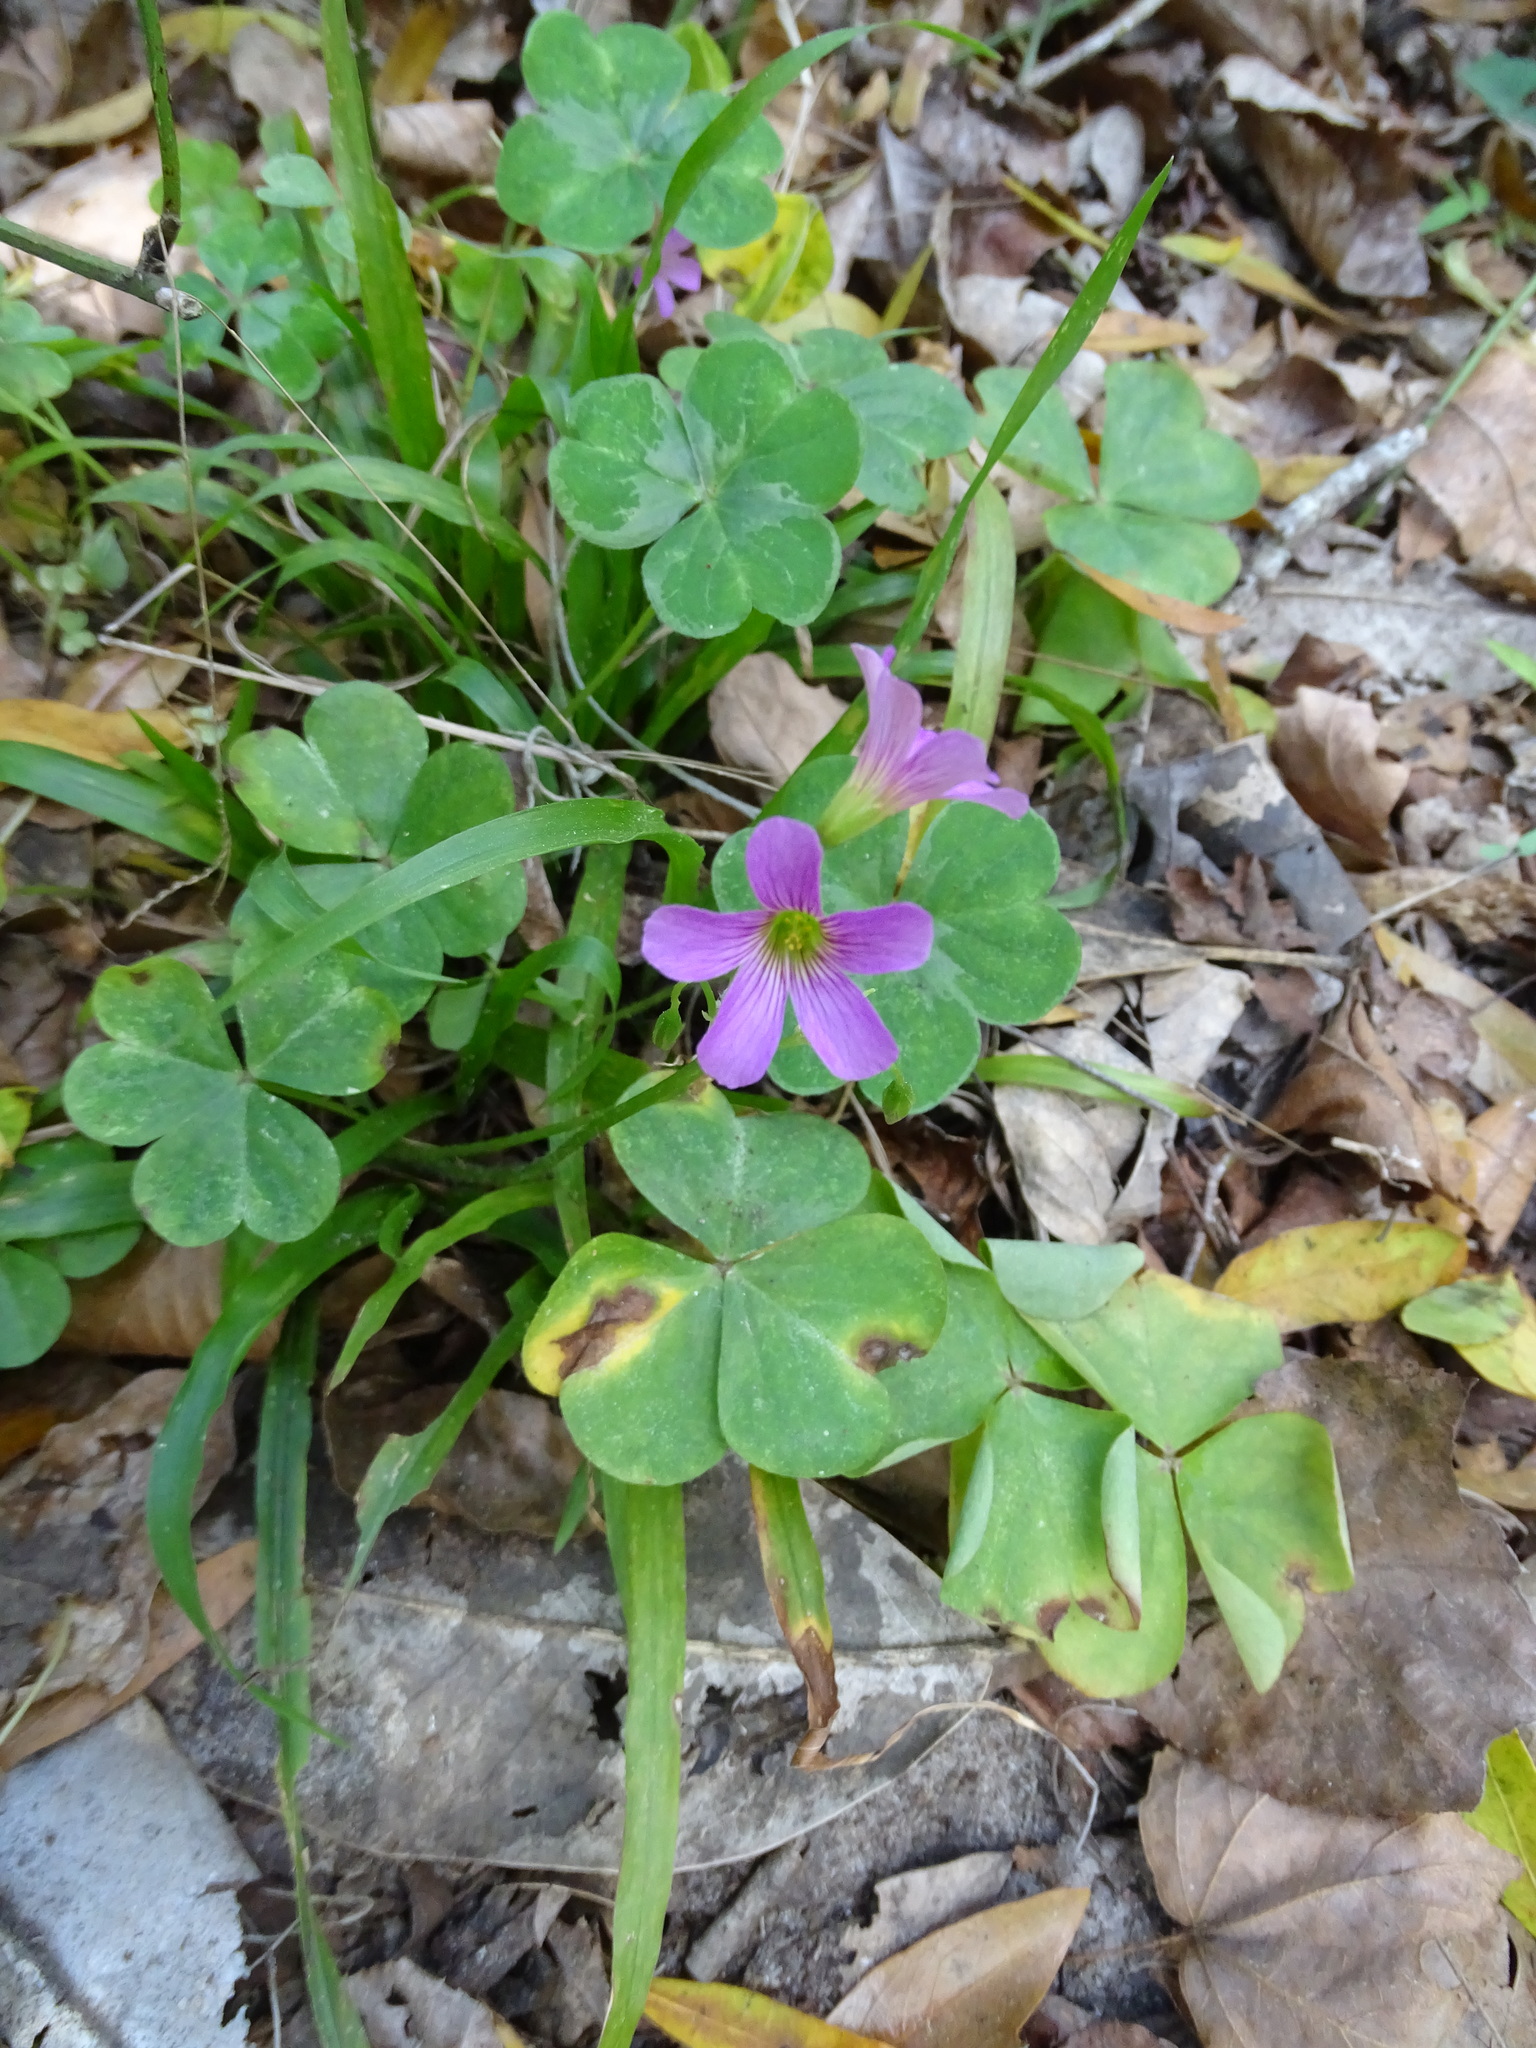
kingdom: Plantae
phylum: Tracheophyta
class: Magnoliopsida
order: Oxalidales
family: Oxalidaceae
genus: Oxalis
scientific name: Oxalis debilis
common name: Large-flowered pink-sorrel
